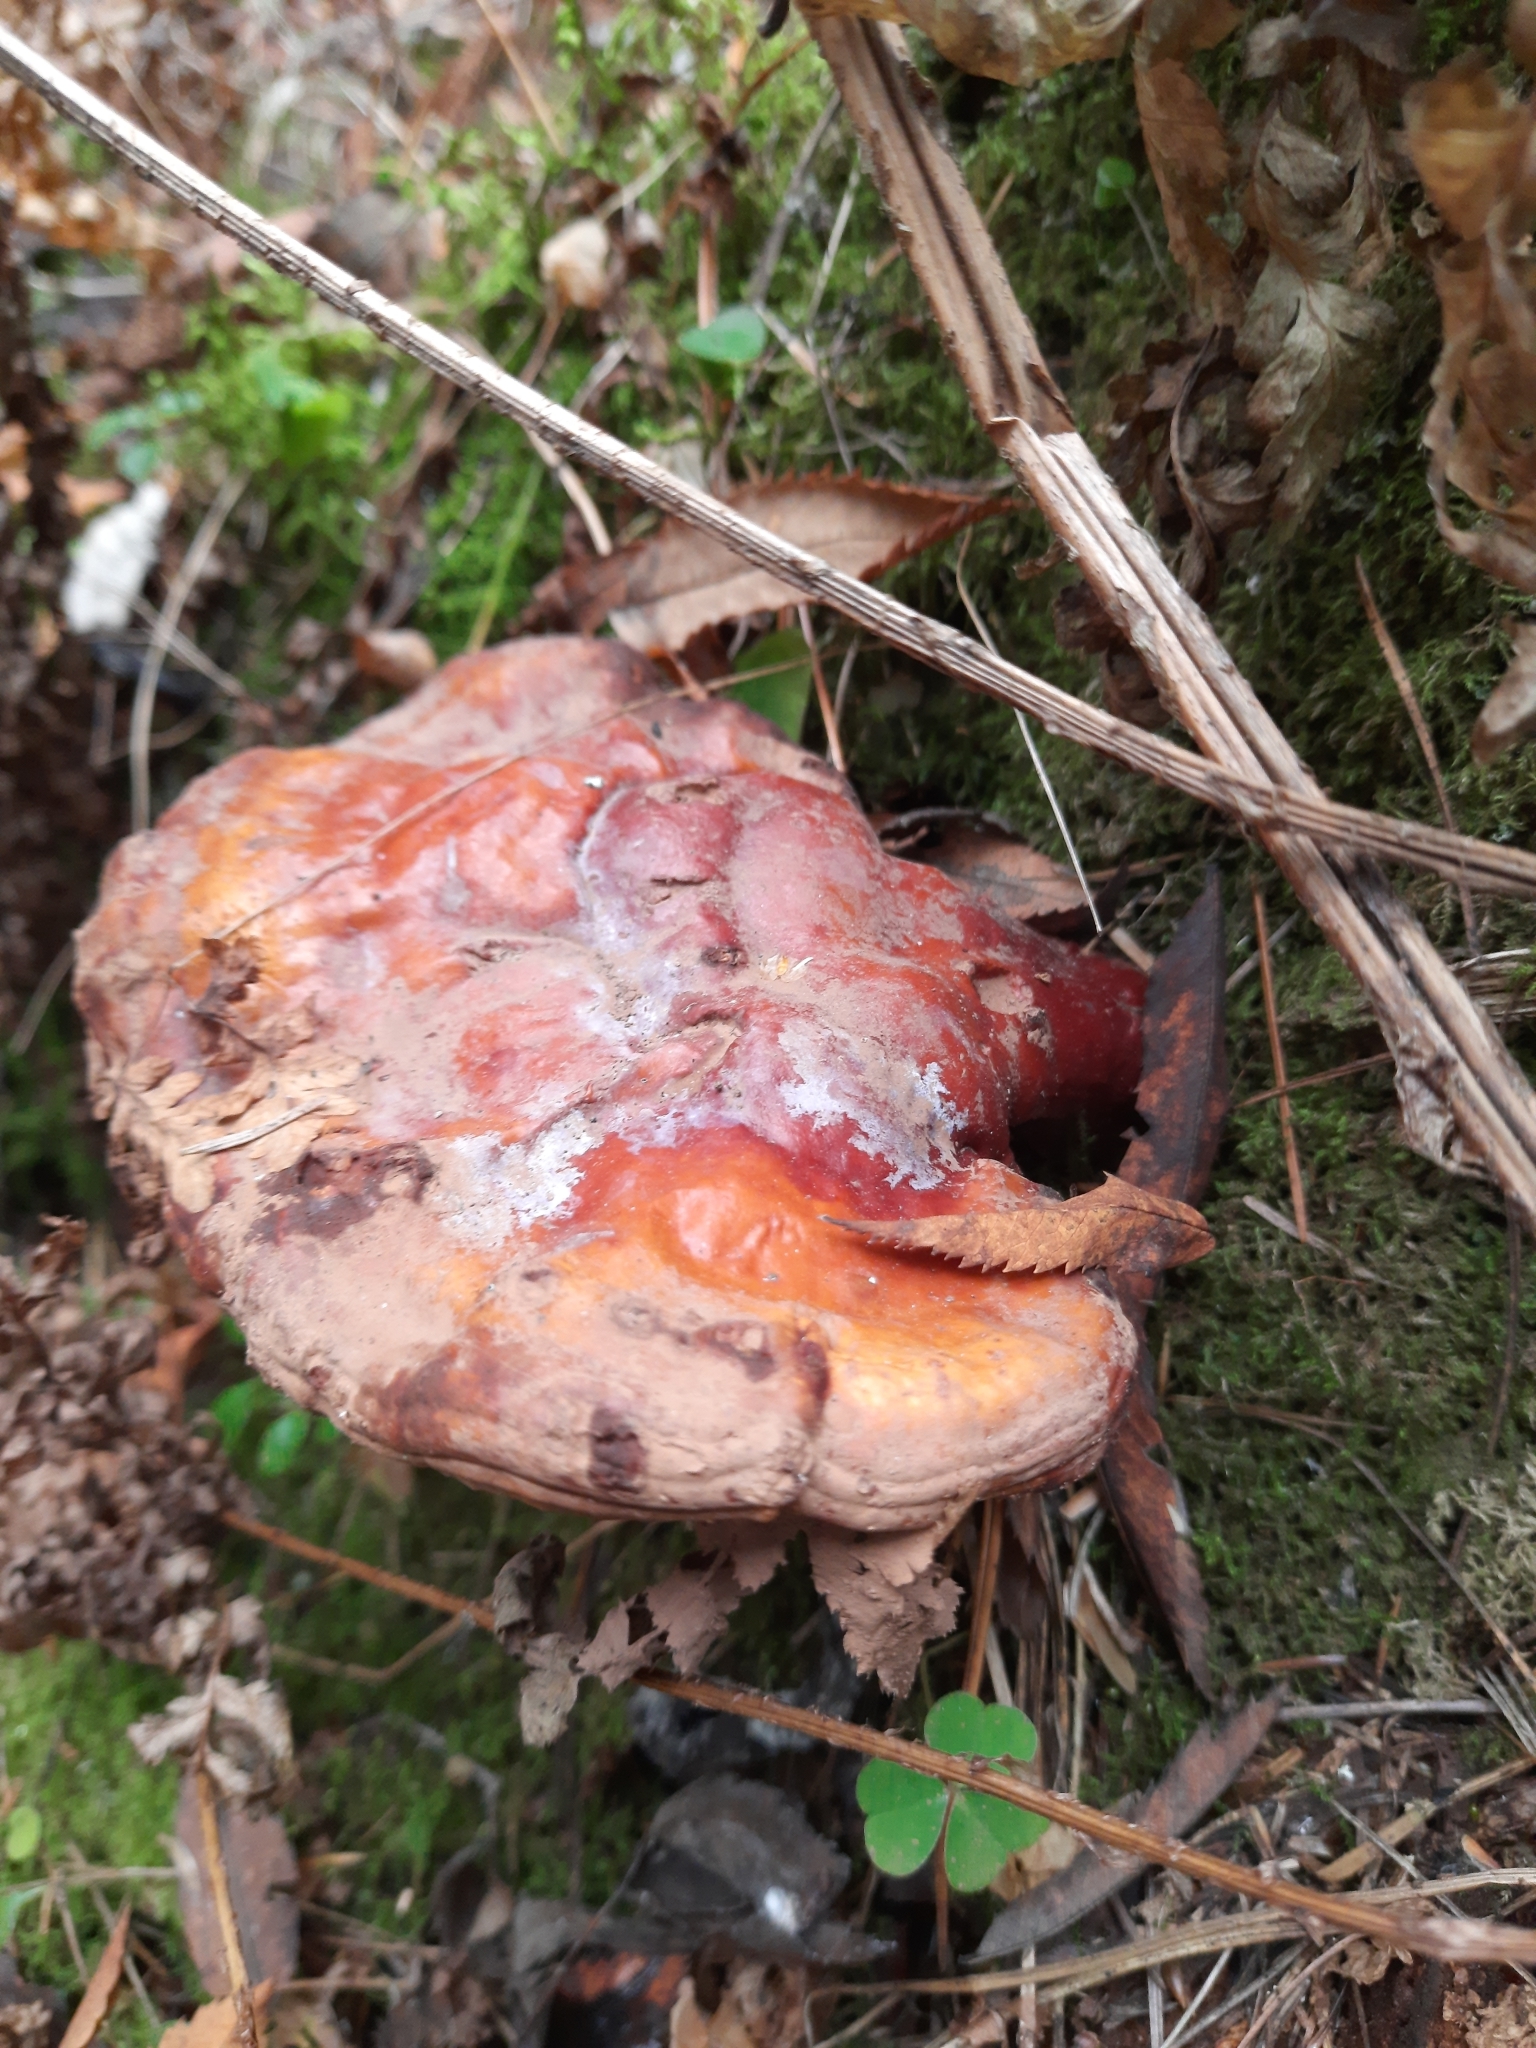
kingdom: Fungi
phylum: Basidiomycota
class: Agaricomycetes
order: Polyporales
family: Polyporaceae
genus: Ganoderma
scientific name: Ganoderma lucidum
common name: Lacquered bracket
